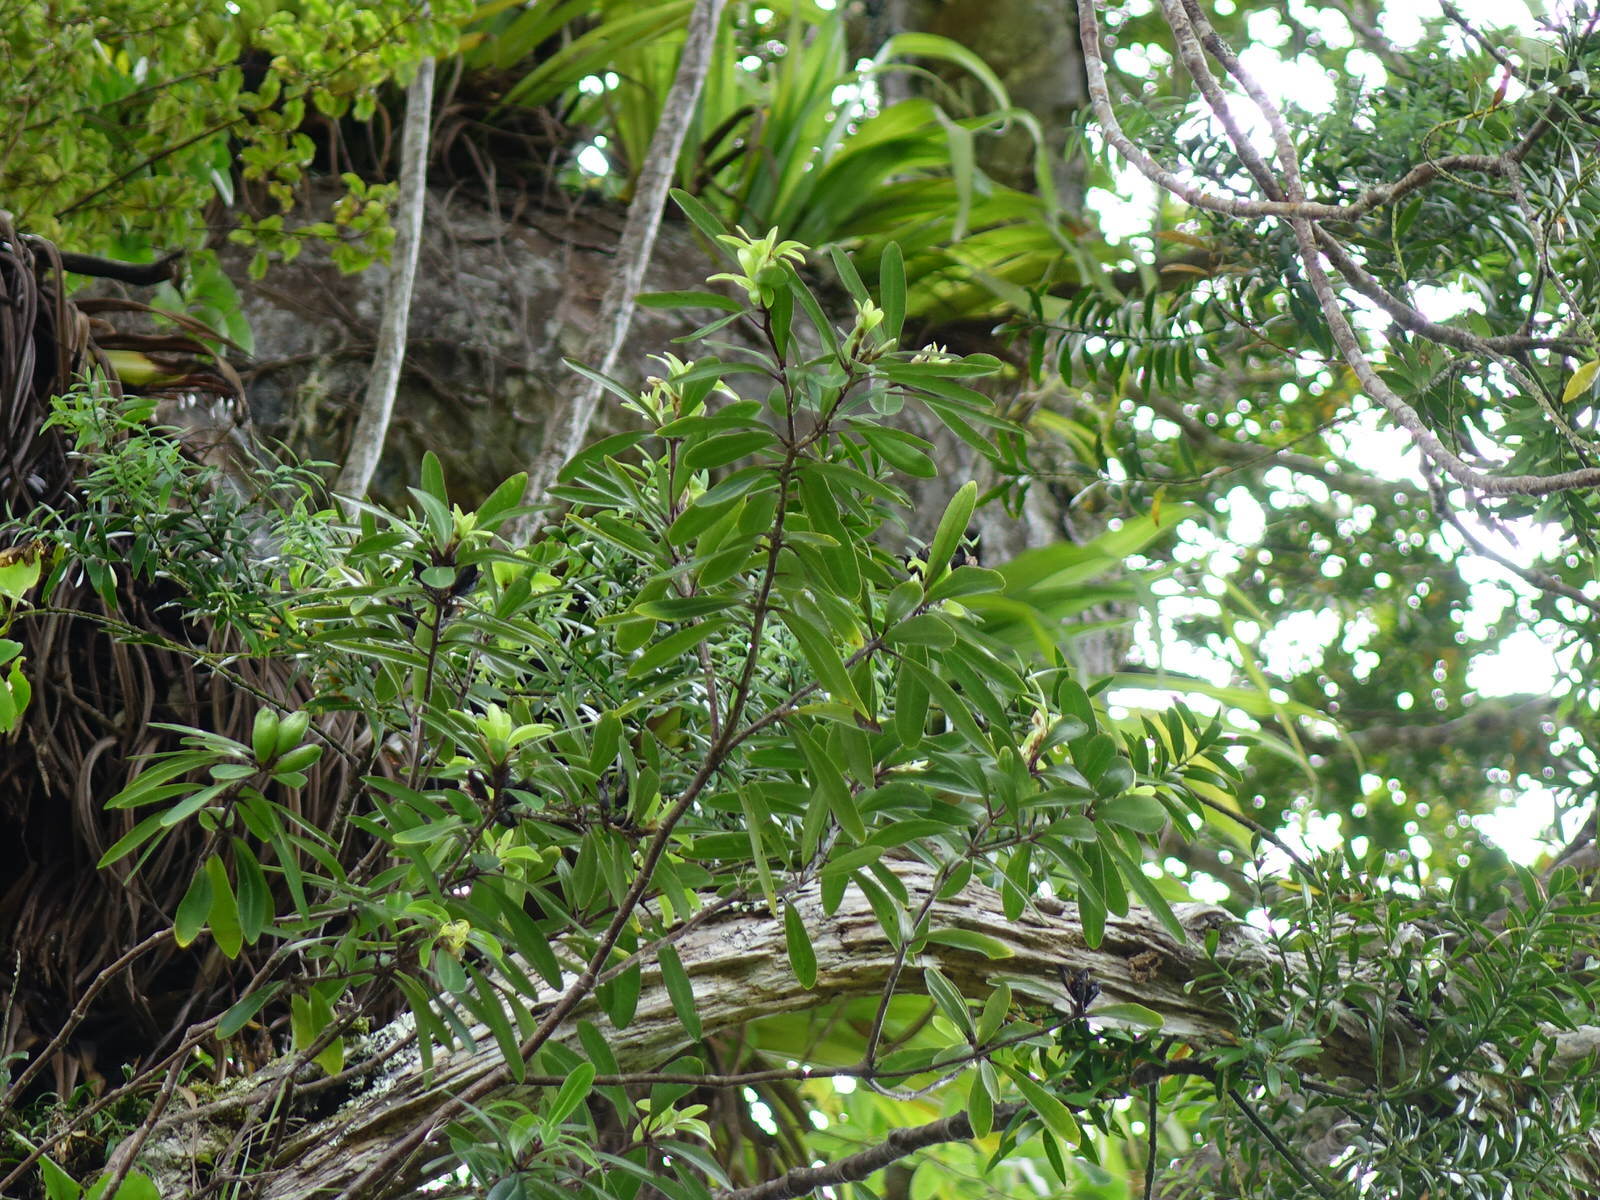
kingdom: Plantae
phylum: Tracheophyta
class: Magnoliopsida
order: Apiales
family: Pittosporaceae
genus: Pittosporum
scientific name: Pittosporum kirkii
